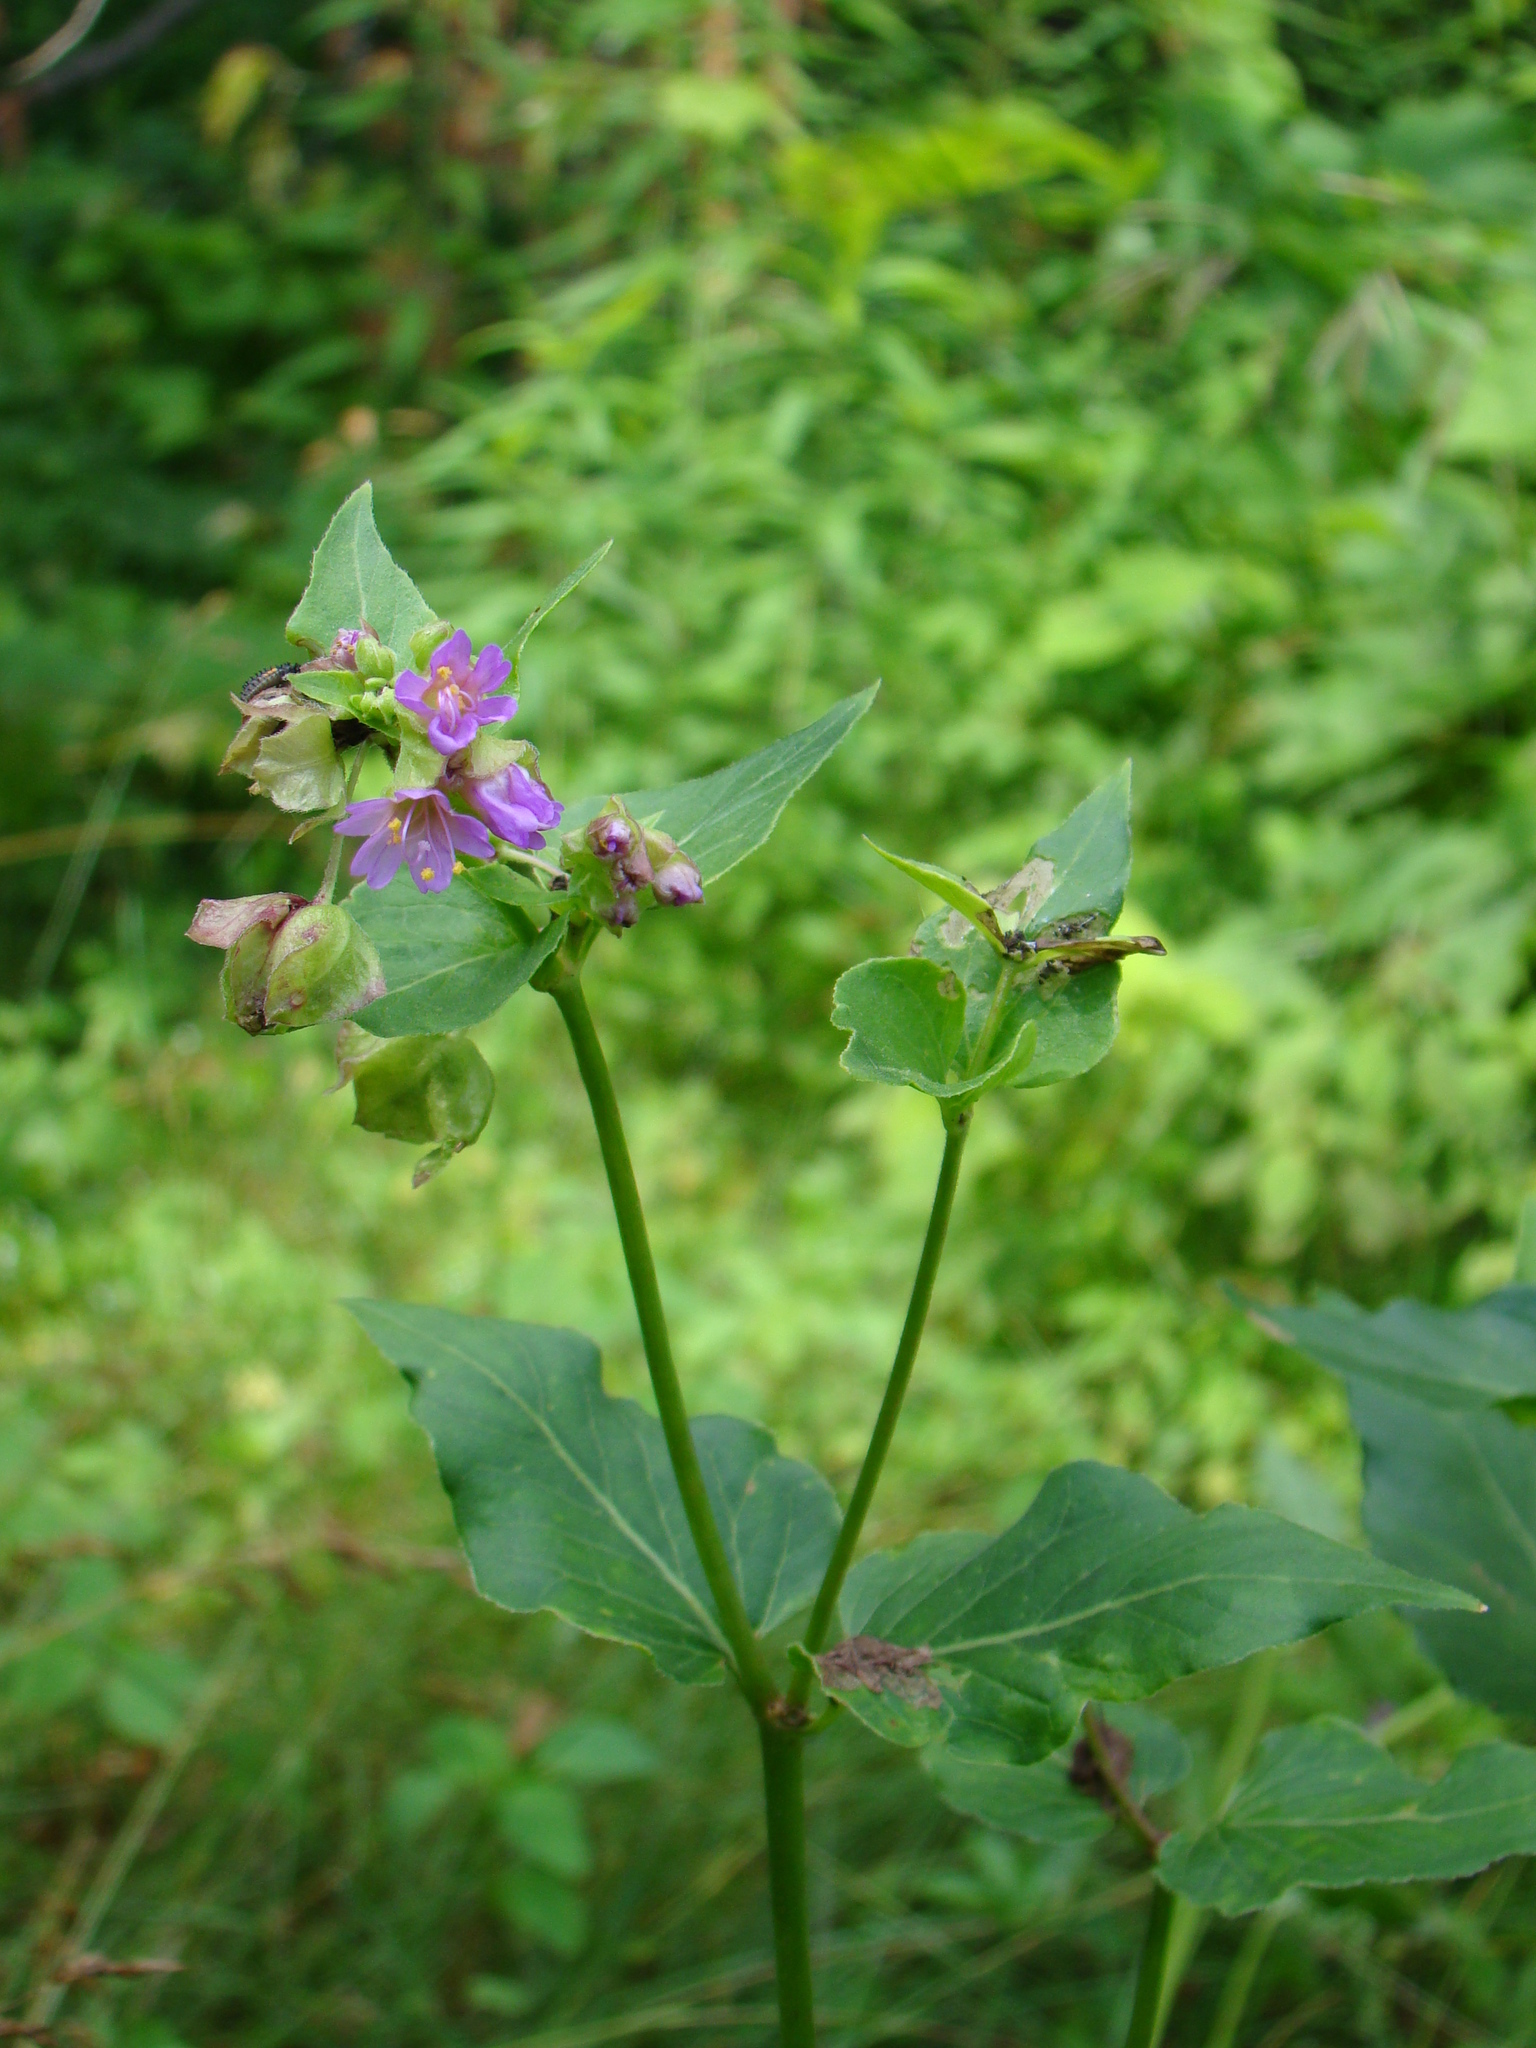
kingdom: Plantae
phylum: Tracheophyta
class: Magnoliopsida
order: Caryophyllales
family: Nyctaginaceae
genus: Mirabilis
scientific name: Mirabilis nyctaginea
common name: Umbrella wort
